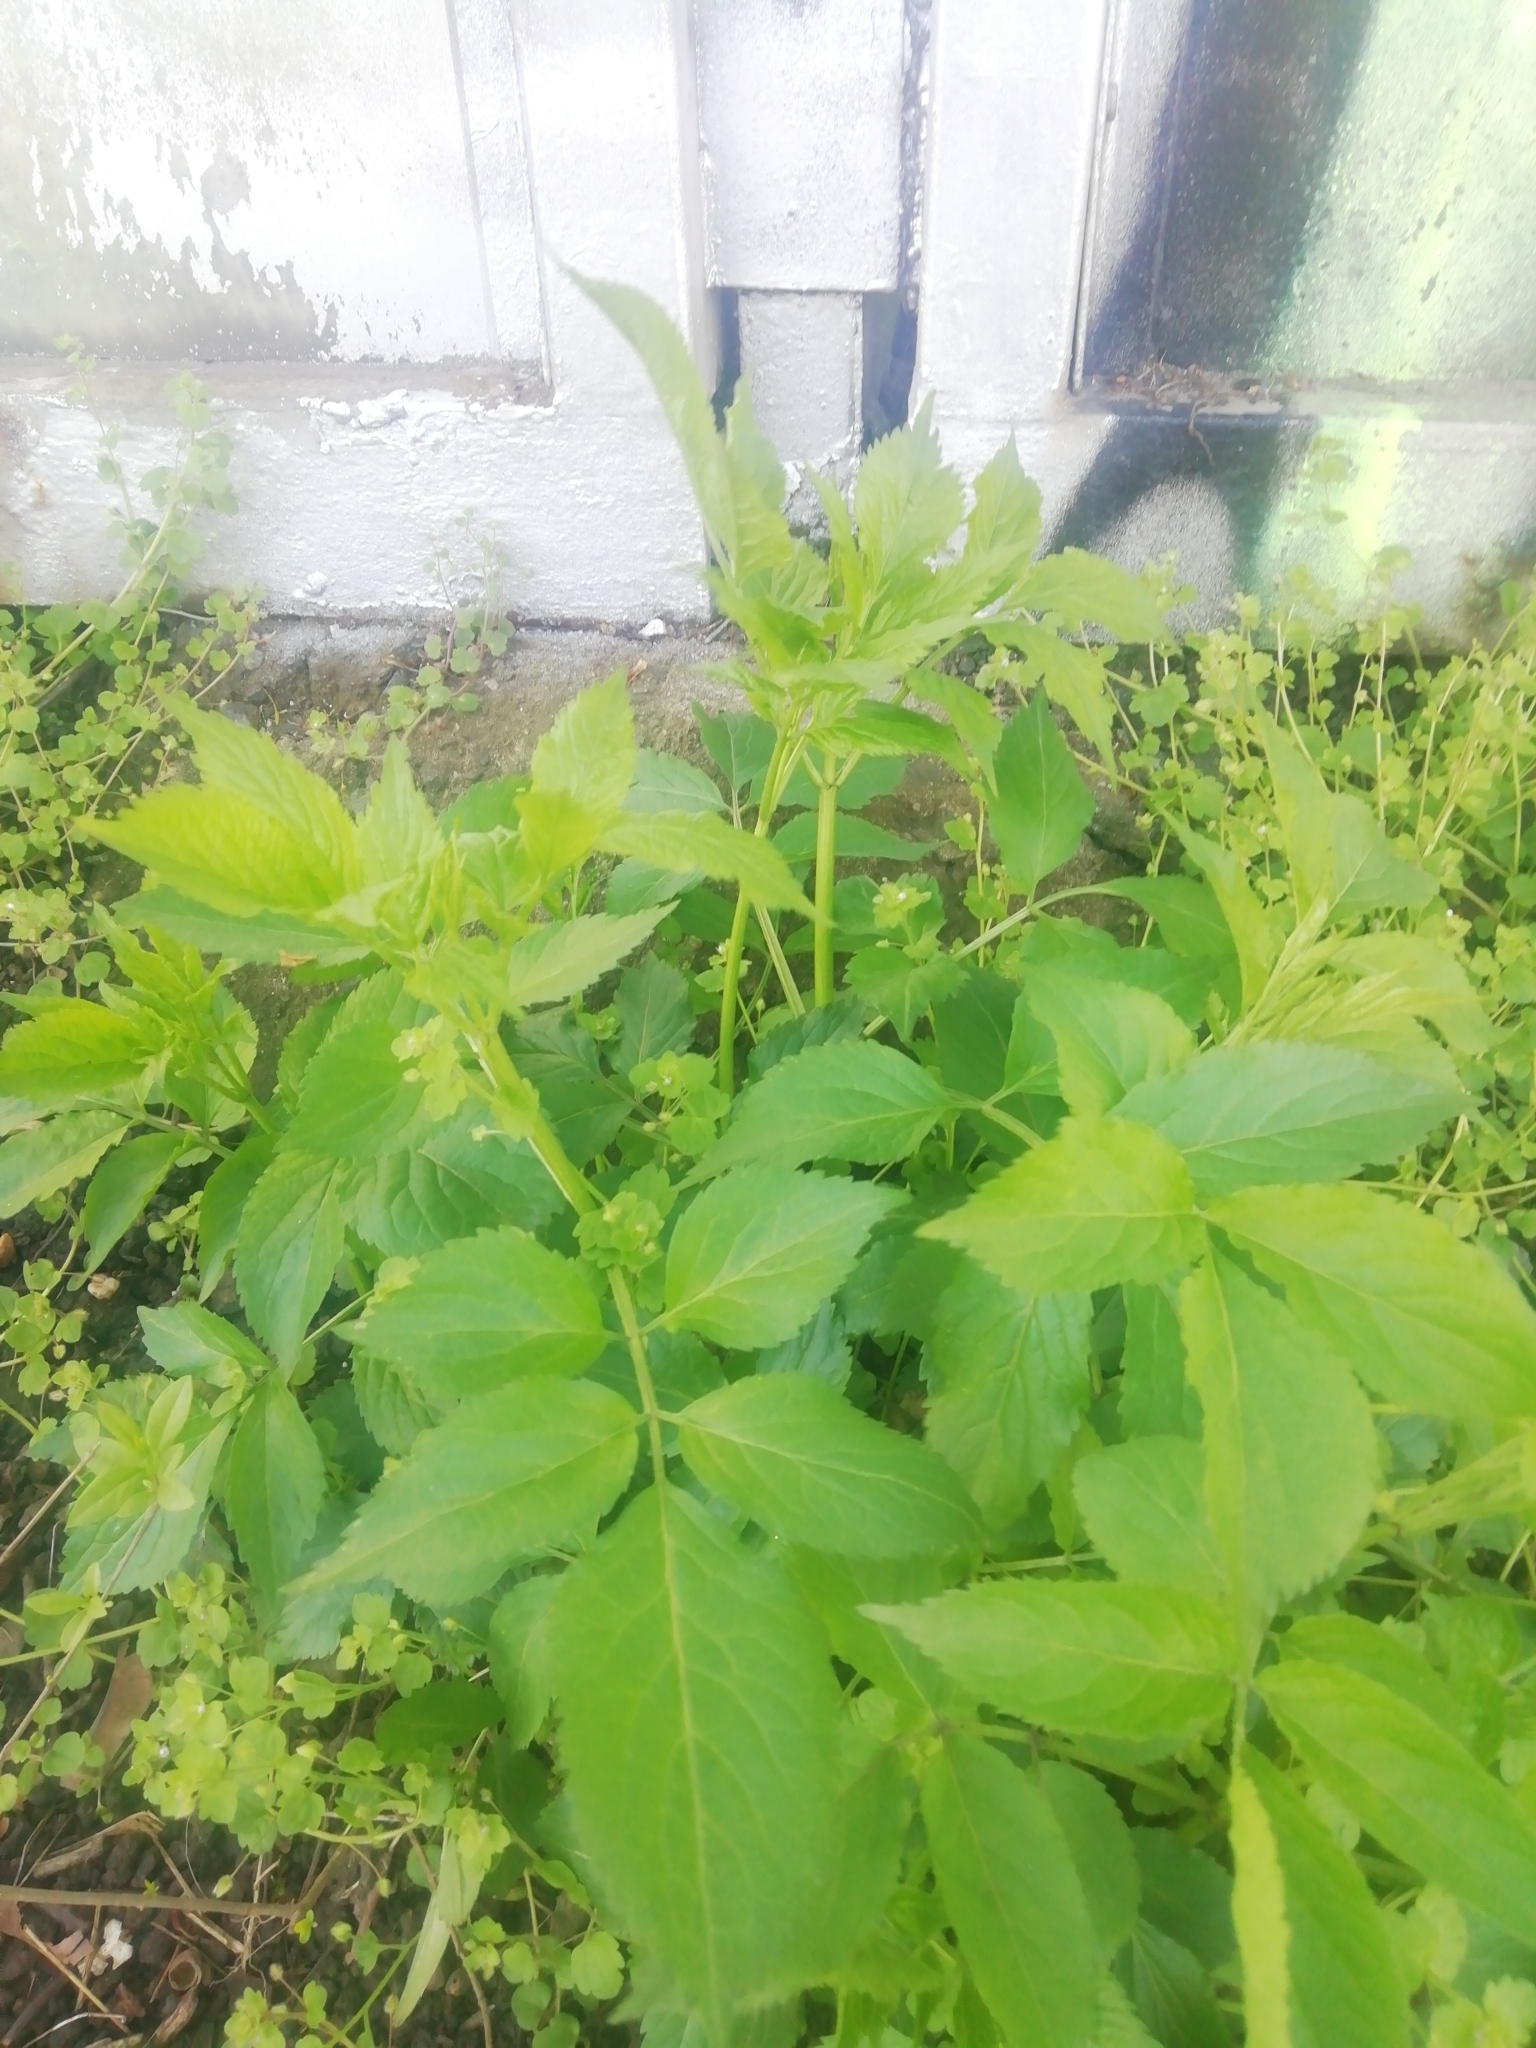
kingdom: Plantae
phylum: Tracheophyta
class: Magnoliopsida
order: Dipsacales
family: Viburnaceae
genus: Sambucus
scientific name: Sambucus nigra
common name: Elder
